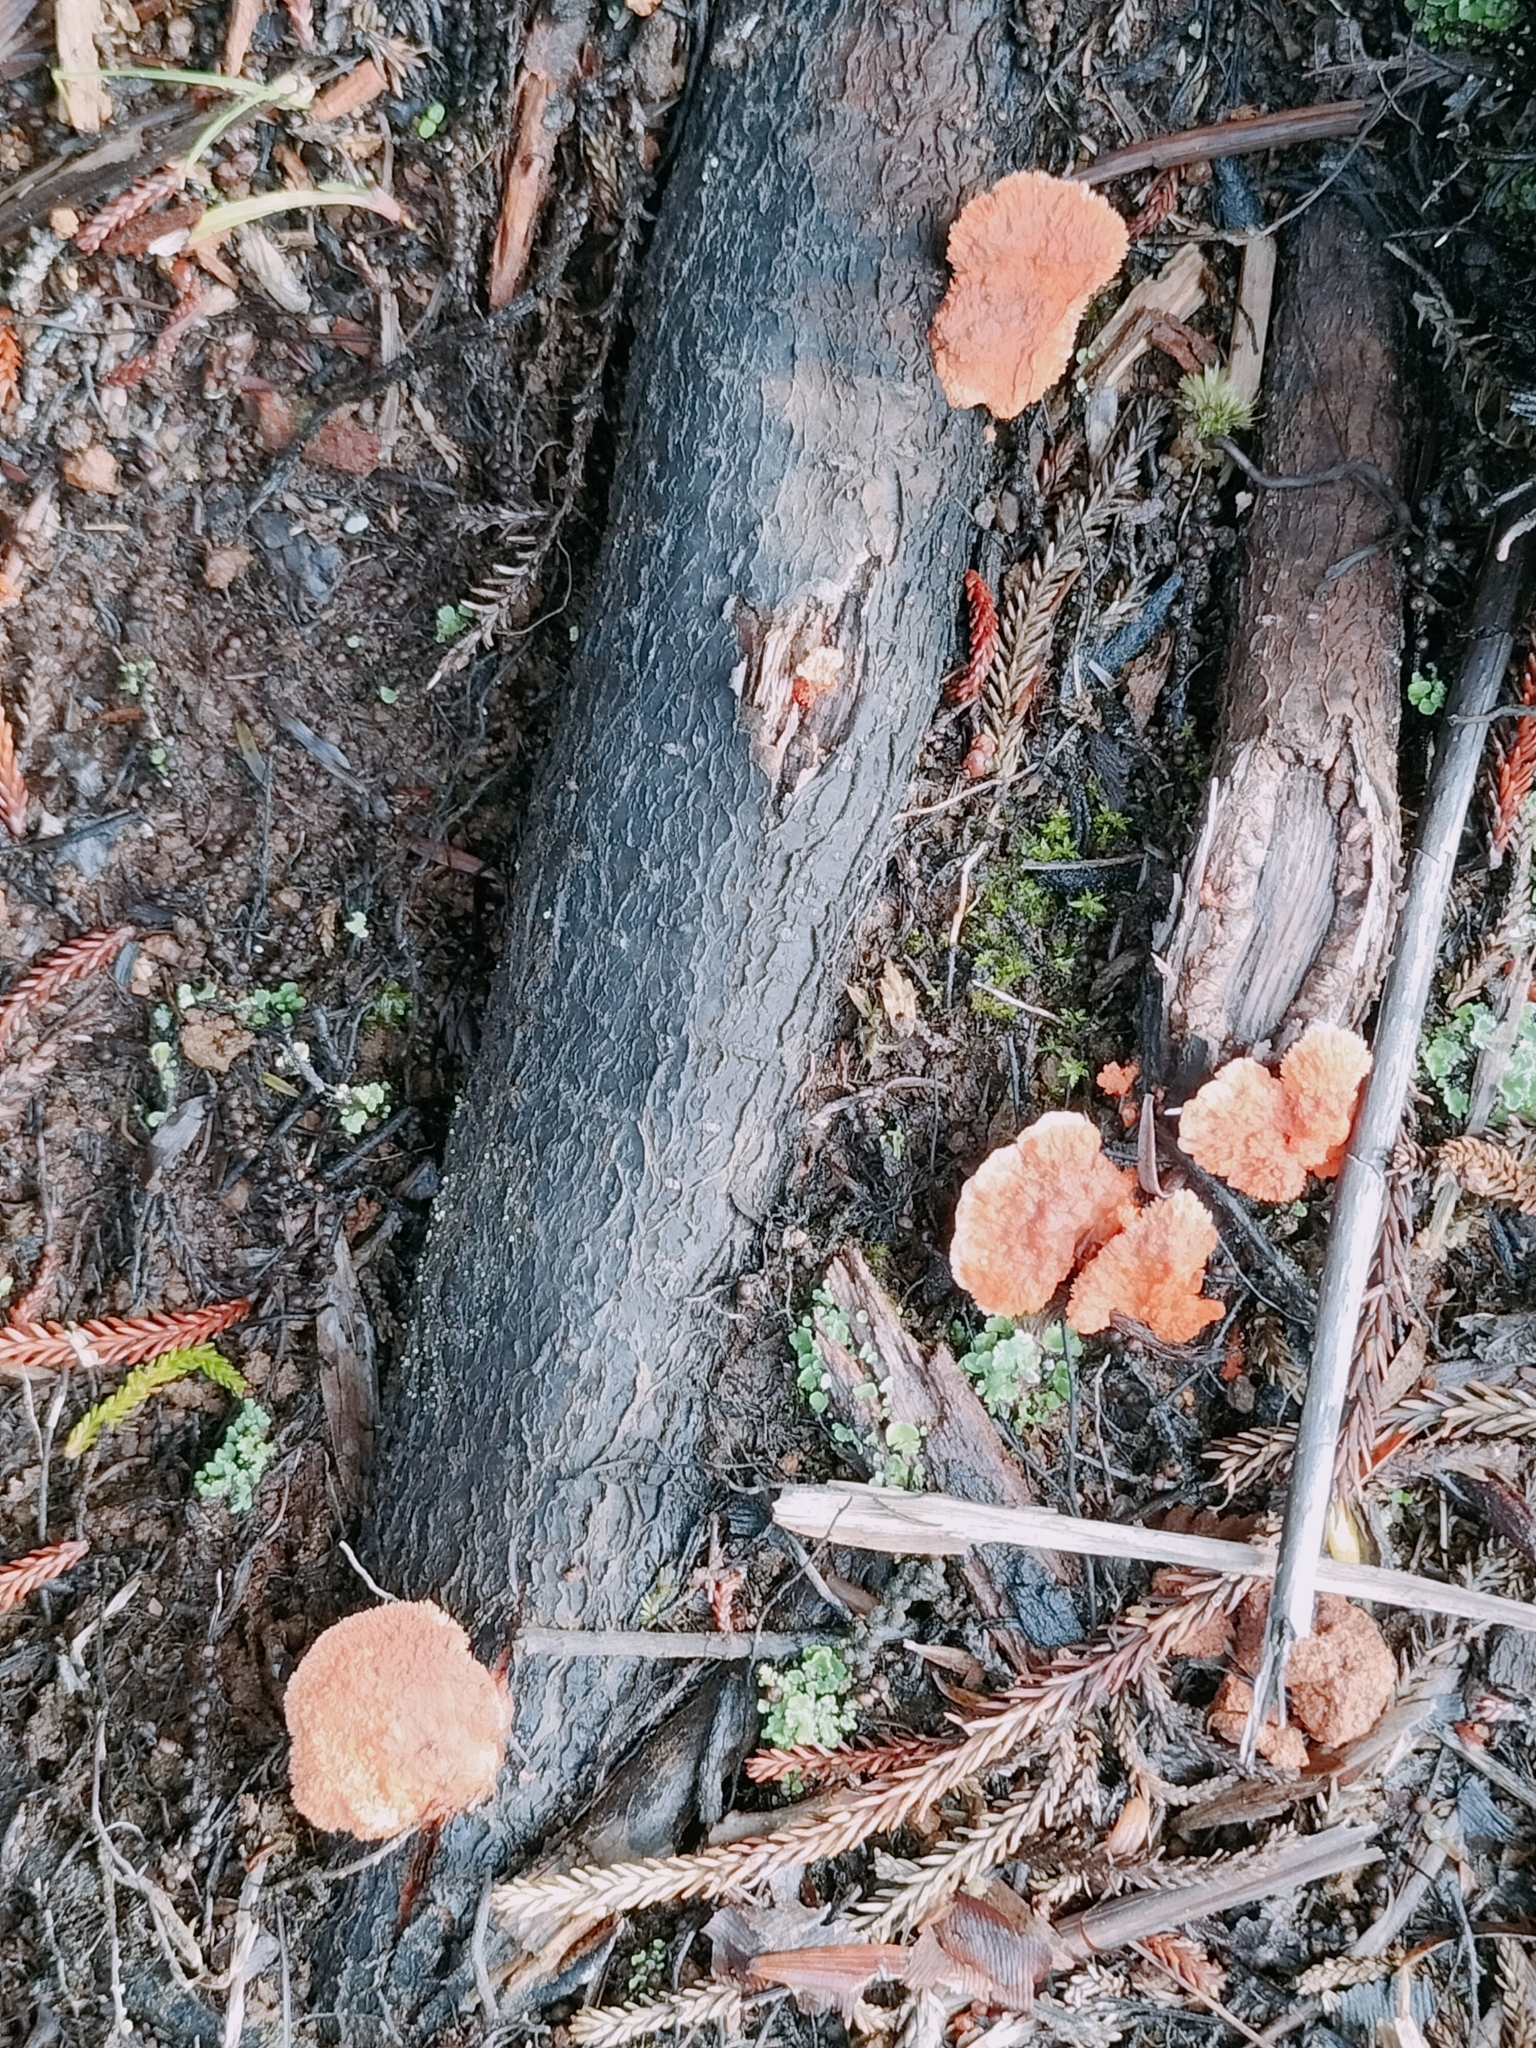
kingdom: Fungi
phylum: Basidiomycota
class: Agaricomycetes
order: Polyporales
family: Polyporaceae
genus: Trametes
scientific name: Trametes coccinea
